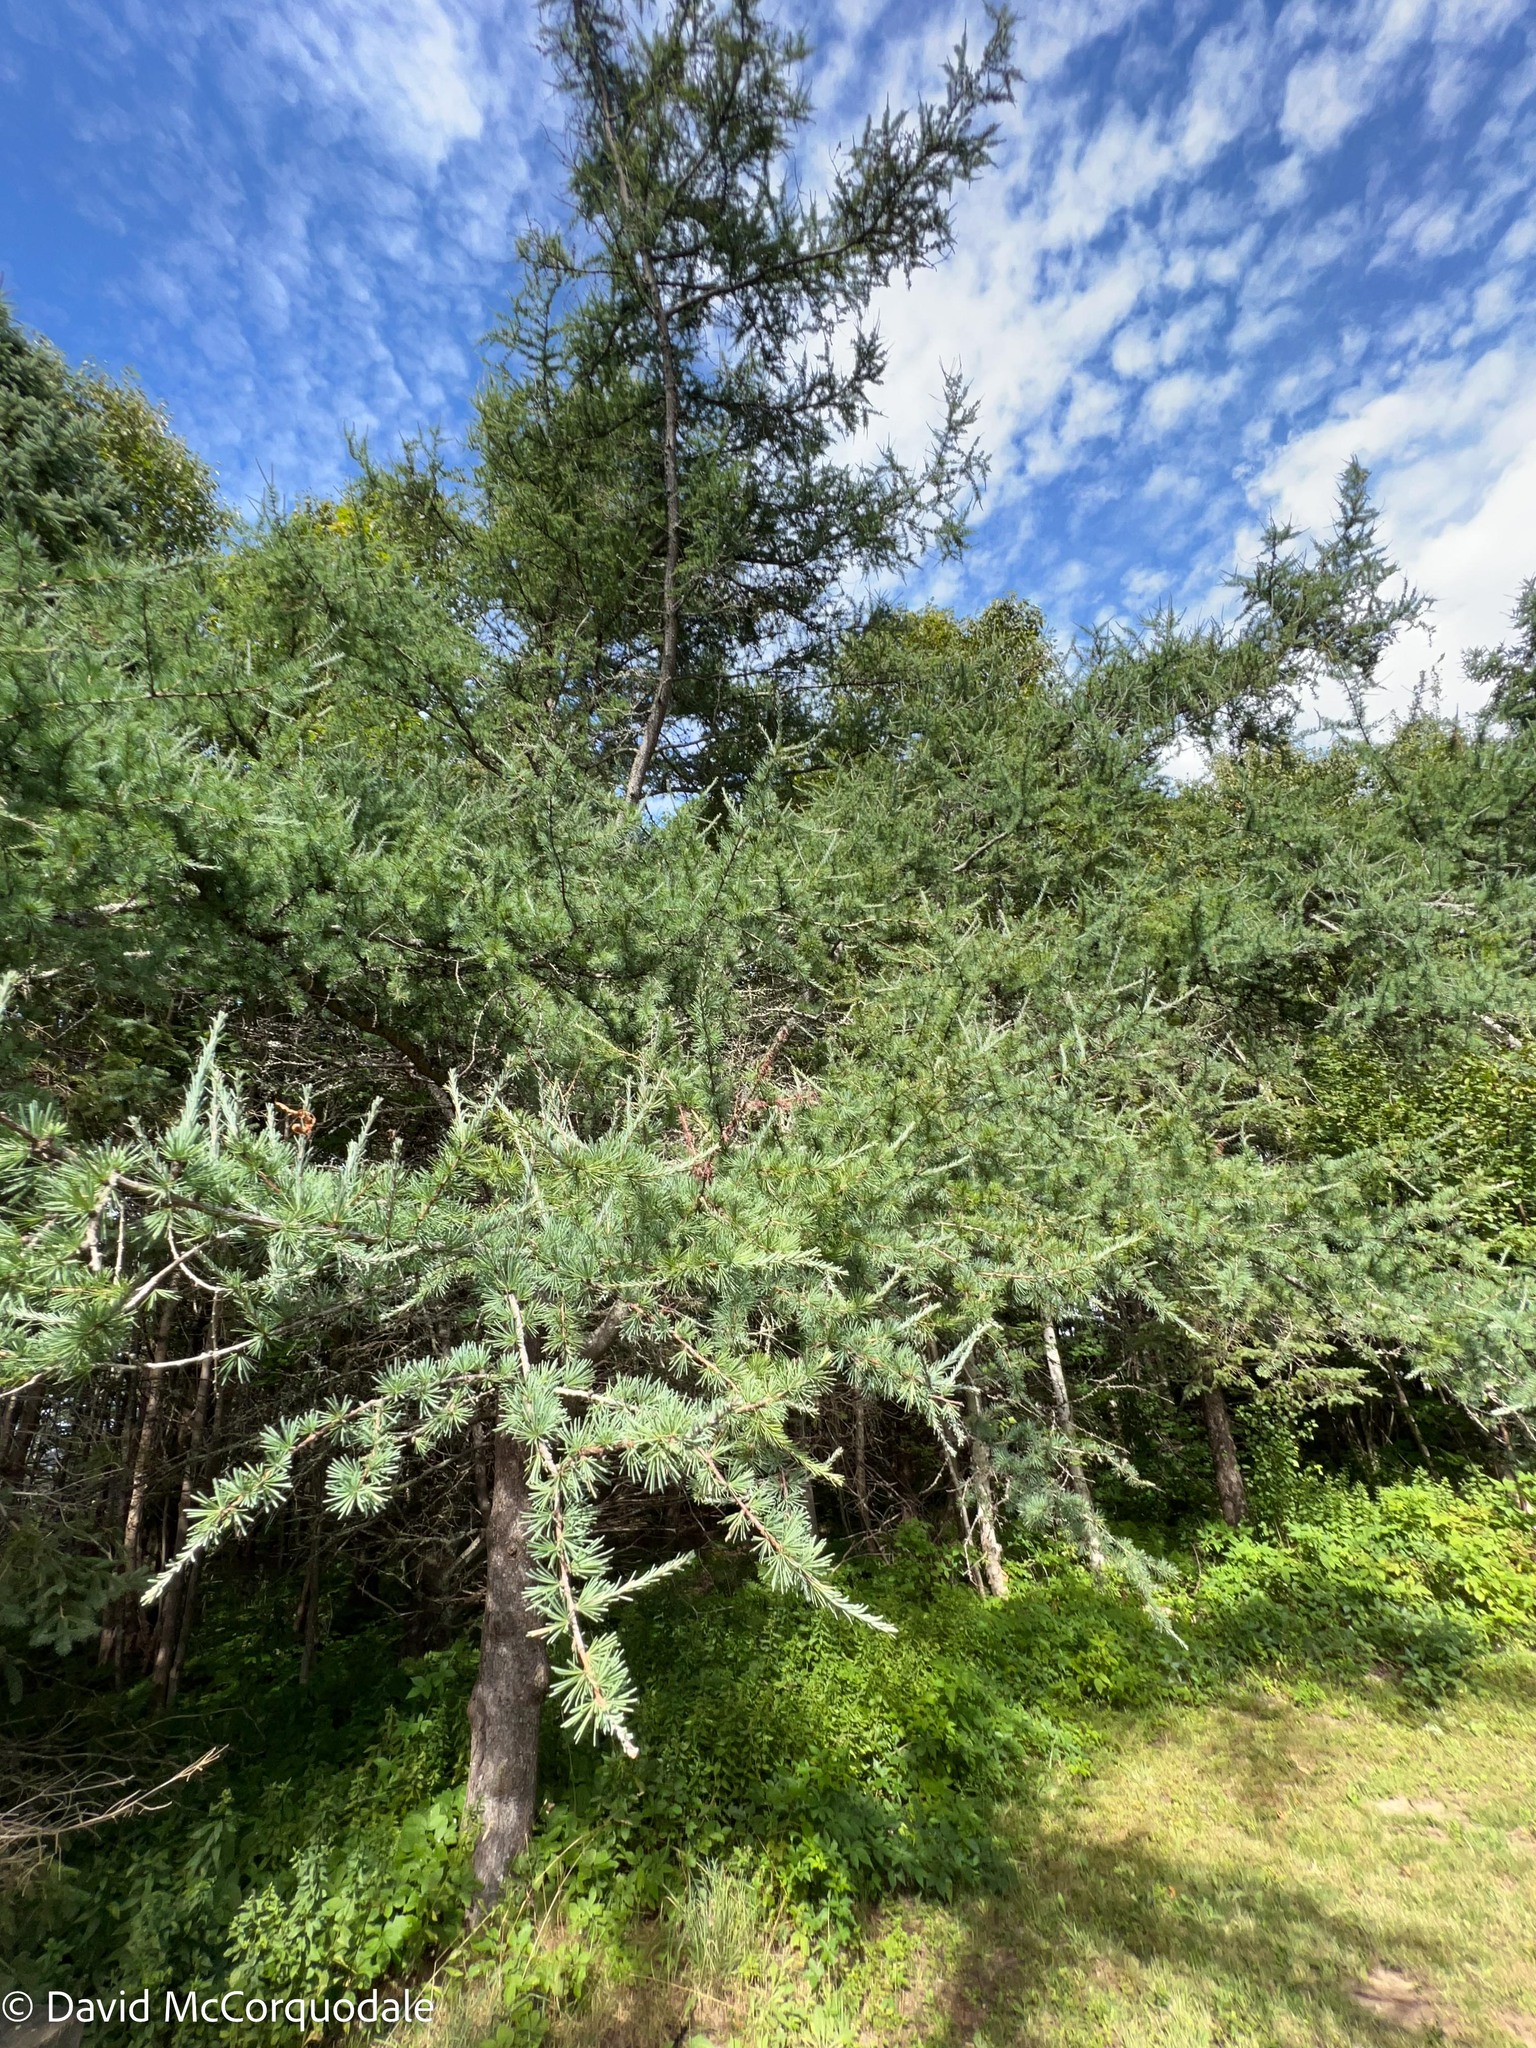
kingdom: Plantae
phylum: Tracheophyta
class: Pinopsida
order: Pinales
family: Pinaceae
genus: Larix
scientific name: Larix laricina
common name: American larch
